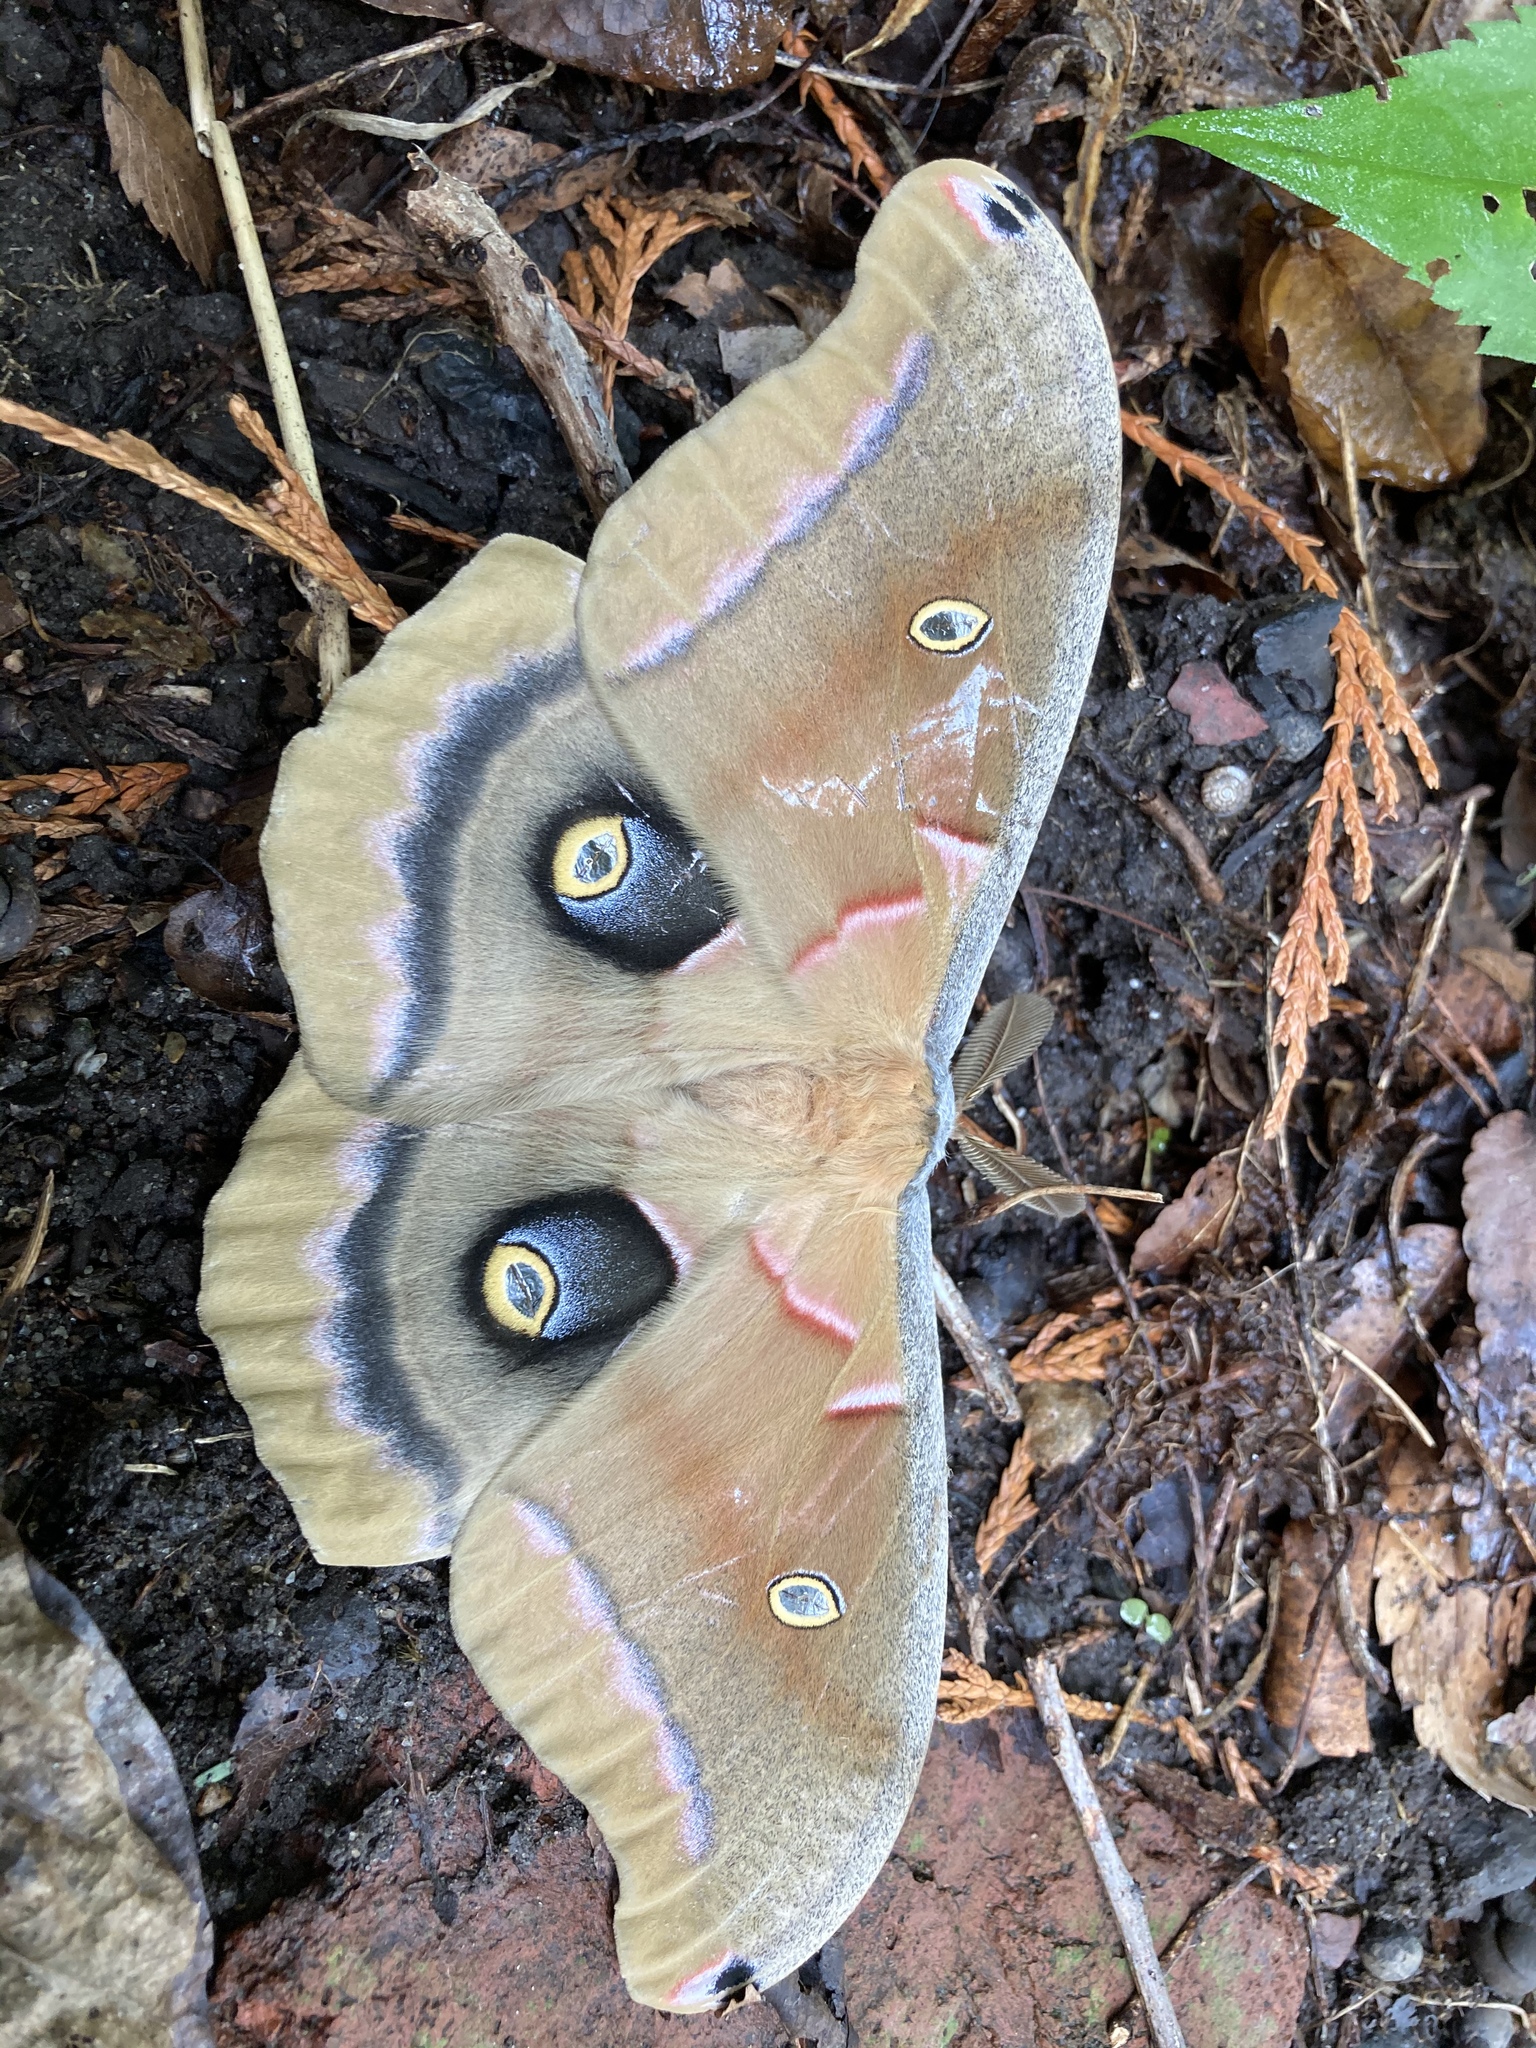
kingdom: Animalia
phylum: Arthropoda
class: Insecta
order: Lepidoptera
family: Saturniidae
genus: Antheraea
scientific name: Antheraea polyphemus
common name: Polyphemus moth
